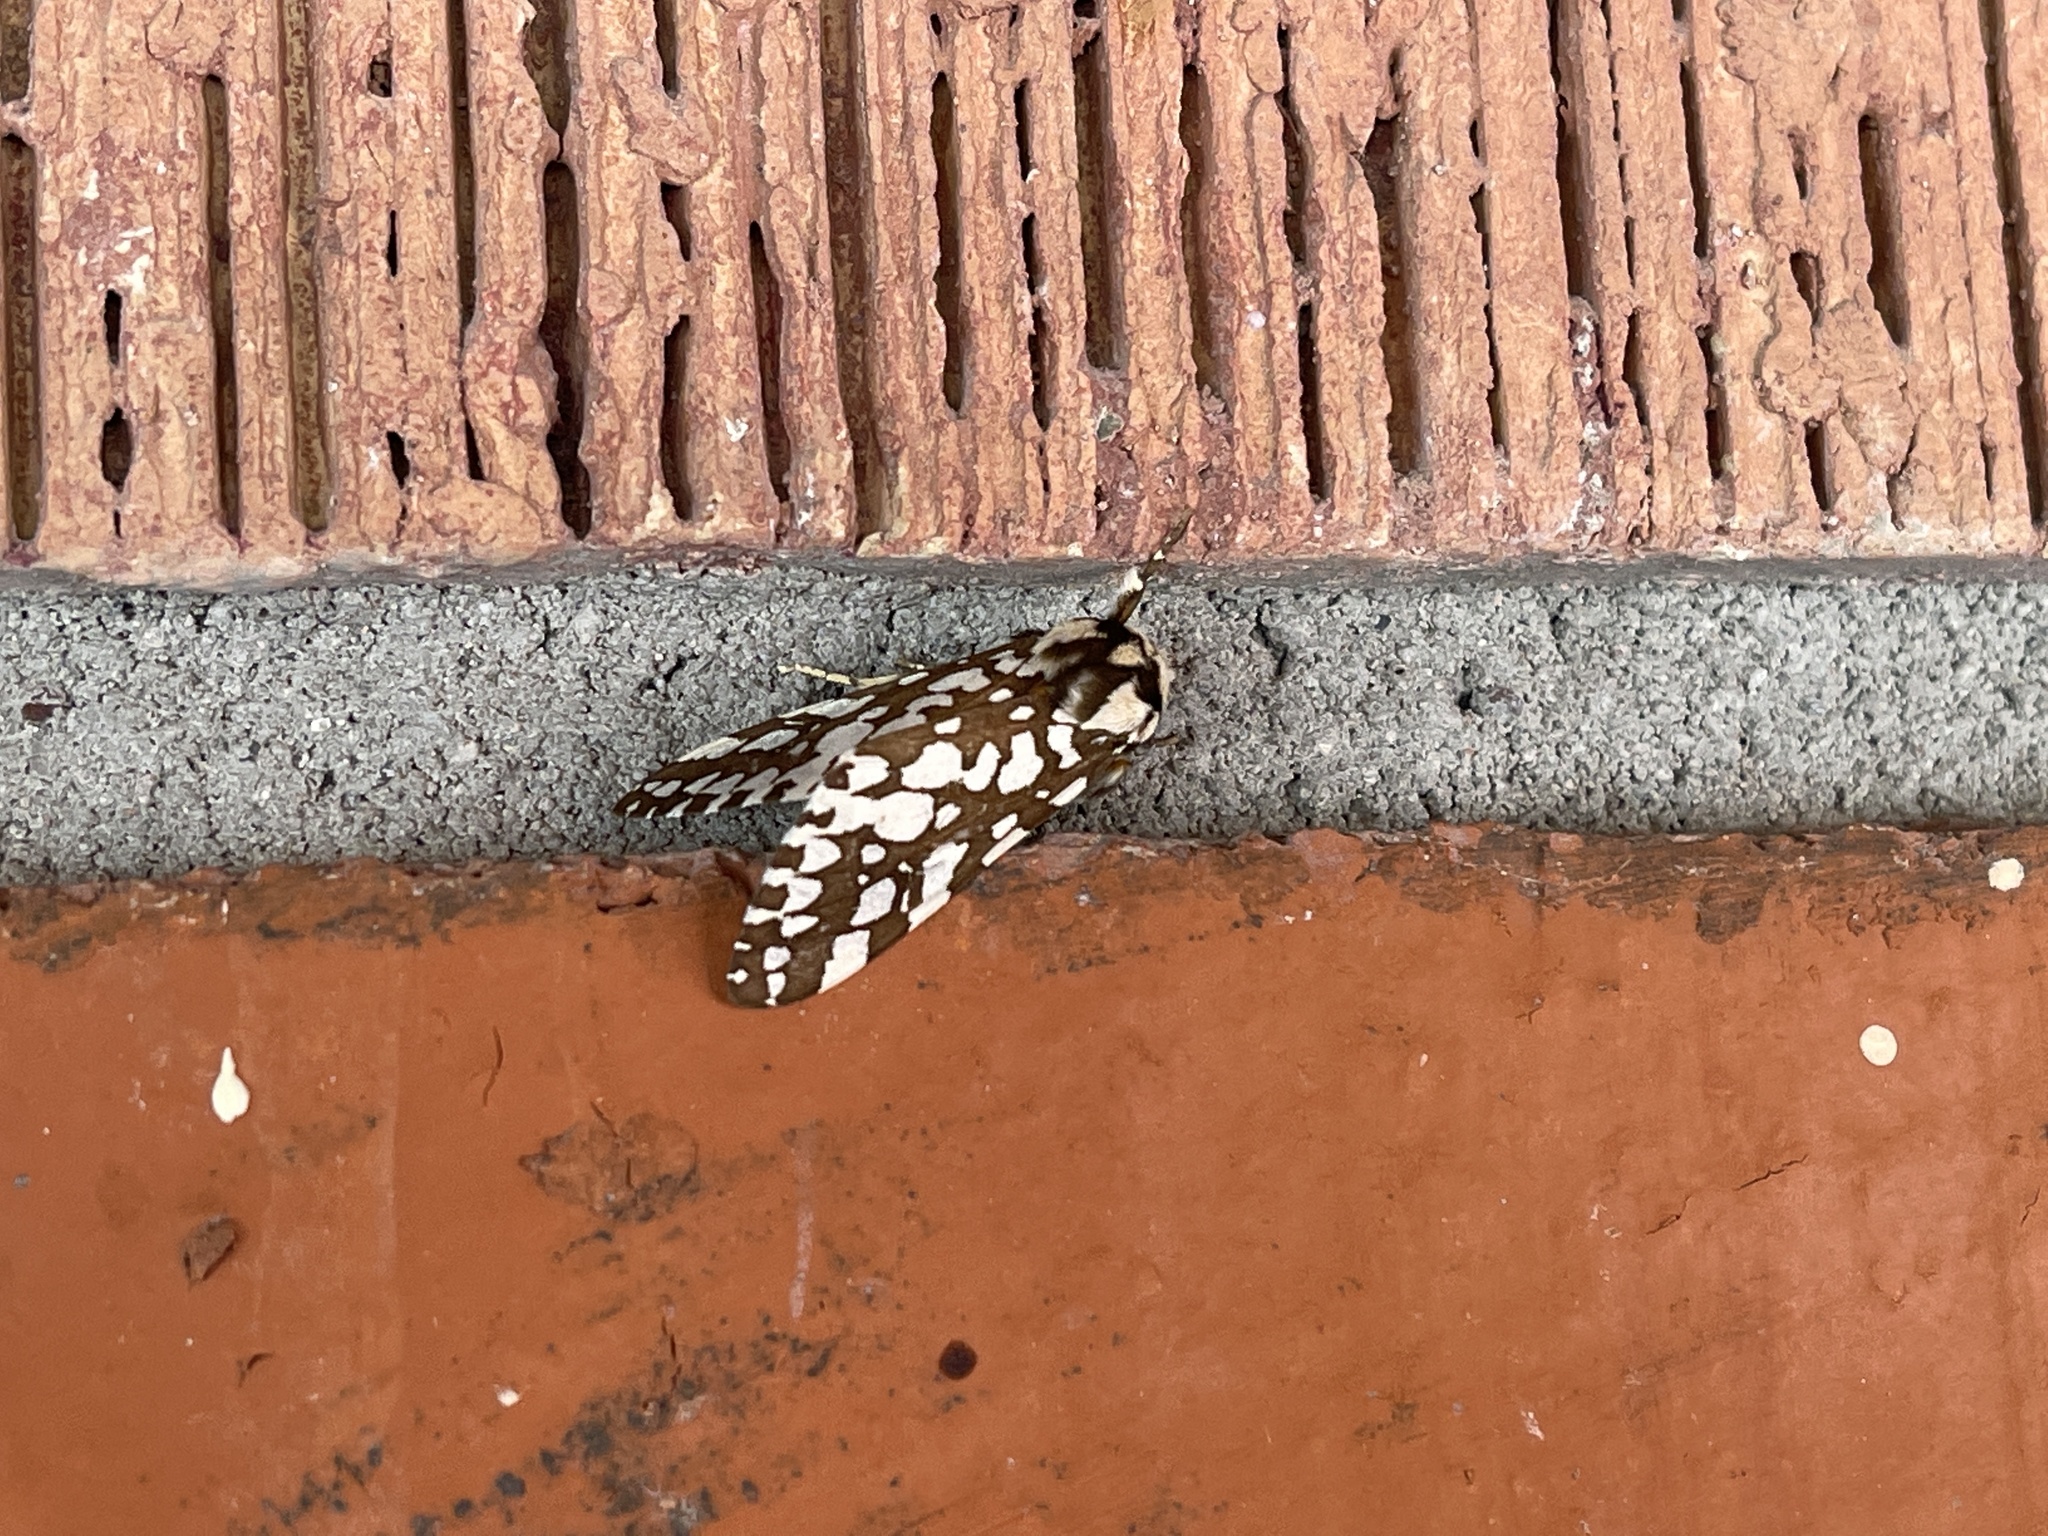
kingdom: Animalia
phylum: Arthropoda
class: Insecta
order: Lepidoptera
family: Erebidae
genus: Lophocampa
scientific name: Lophocampa ingens
